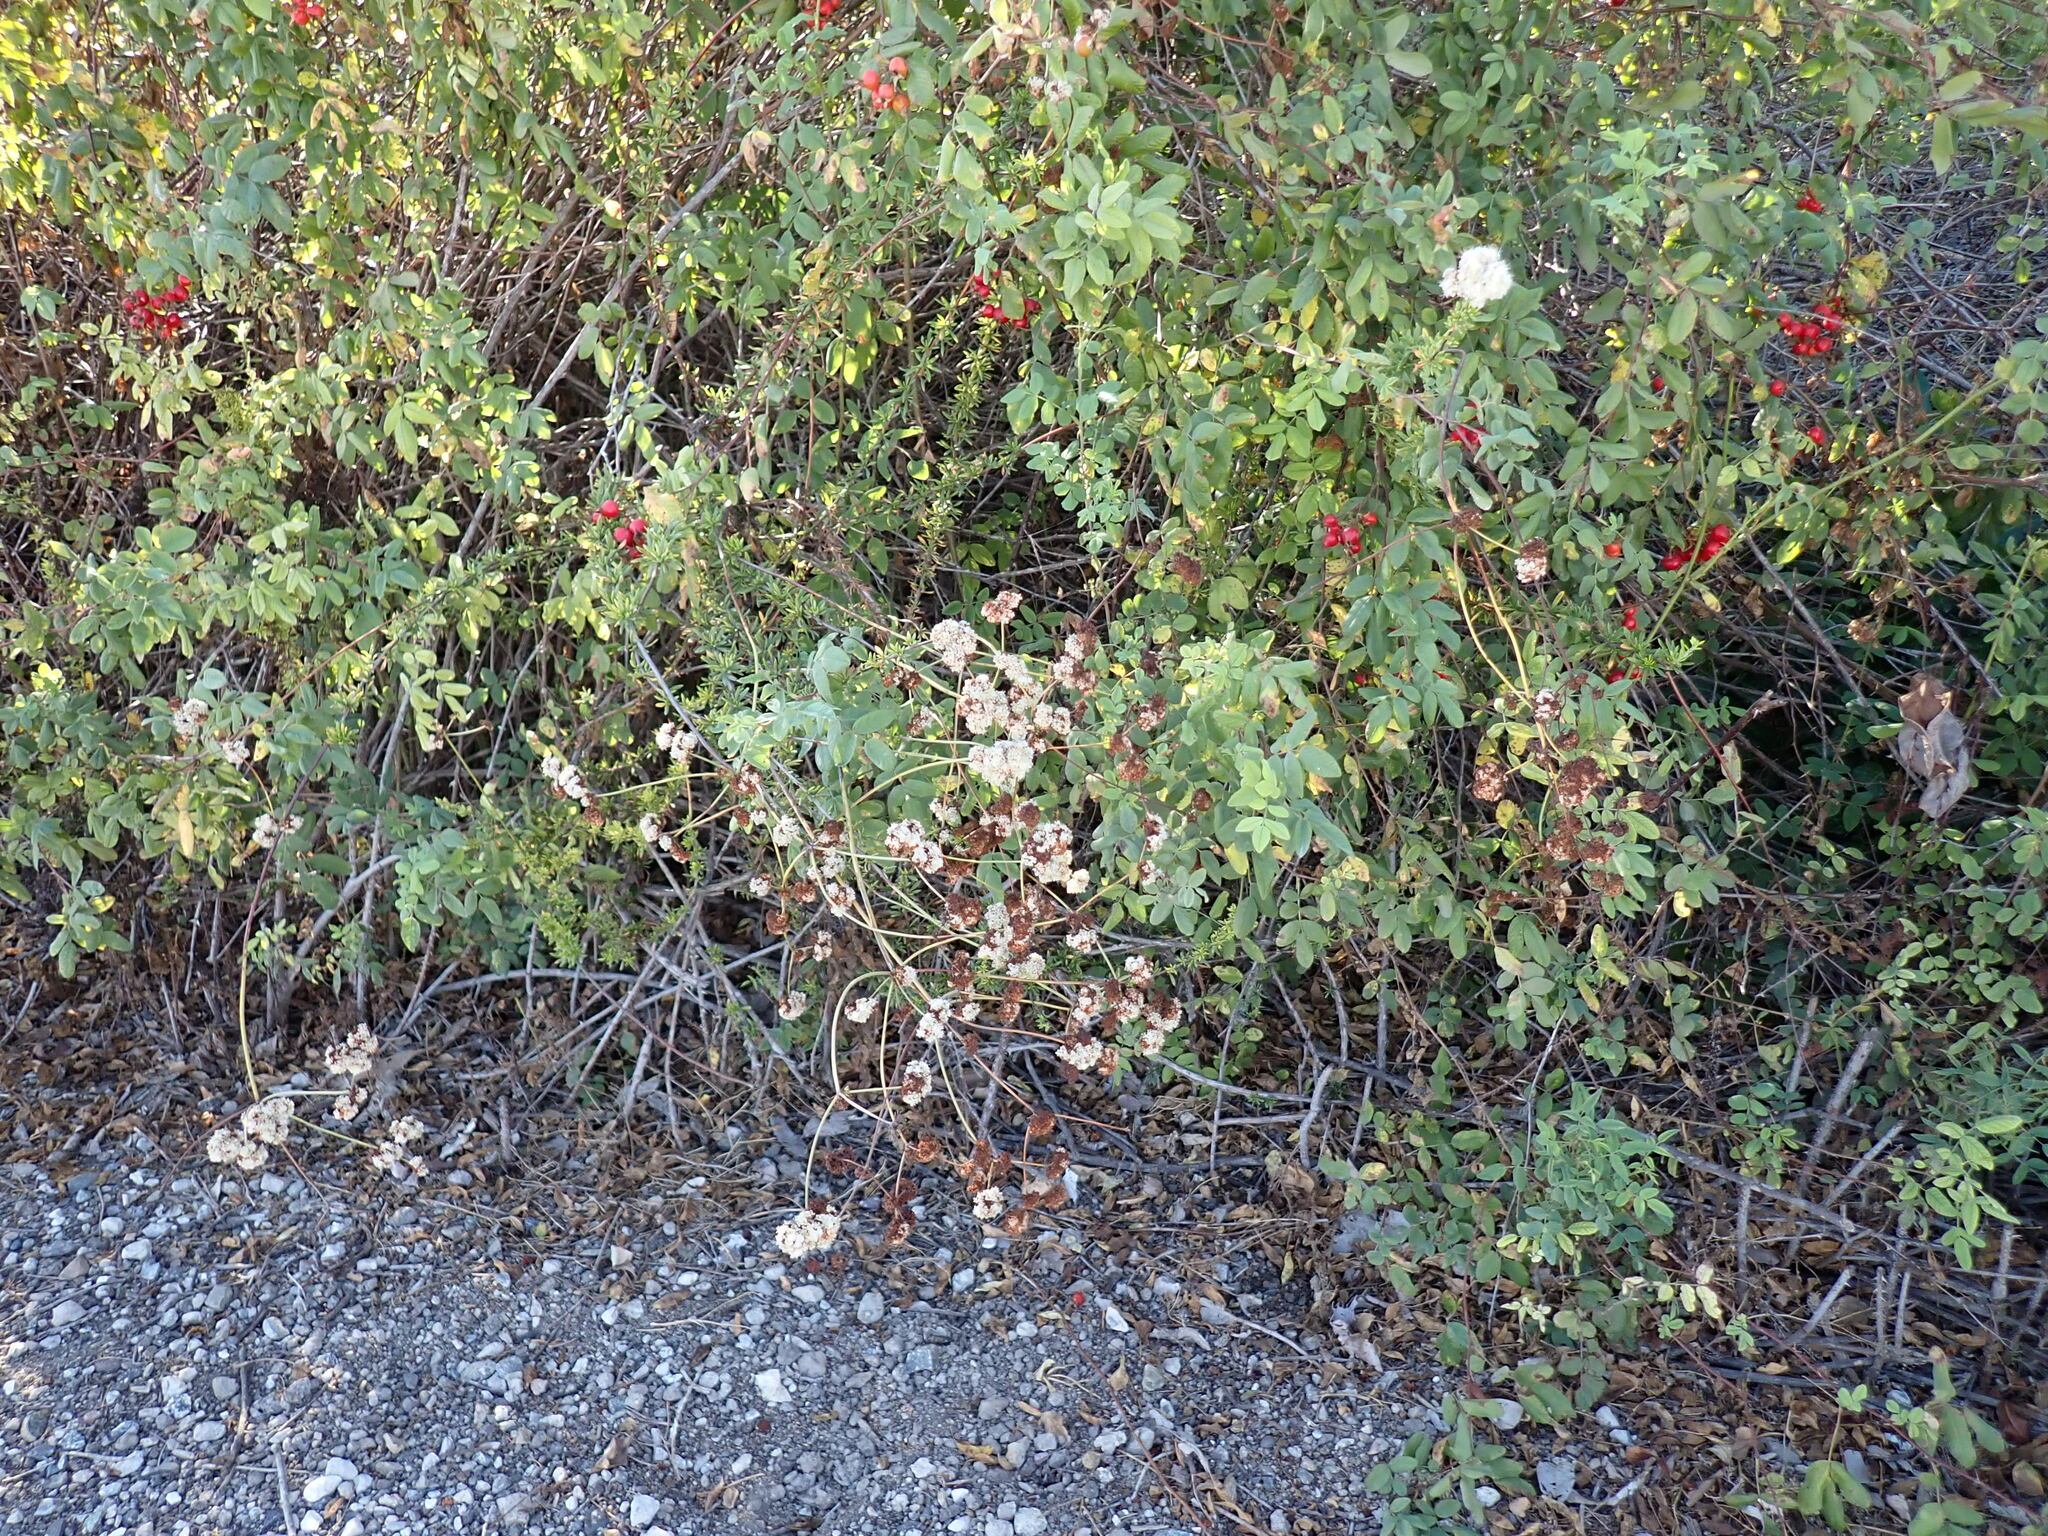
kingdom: Plantae
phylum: Tracheophyta
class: Magnoliopsida
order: Caryophyllales
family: Polygonaceae
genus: Eriogonum
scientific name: Eriogonum fasciculatum
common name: California wild buckwheat
